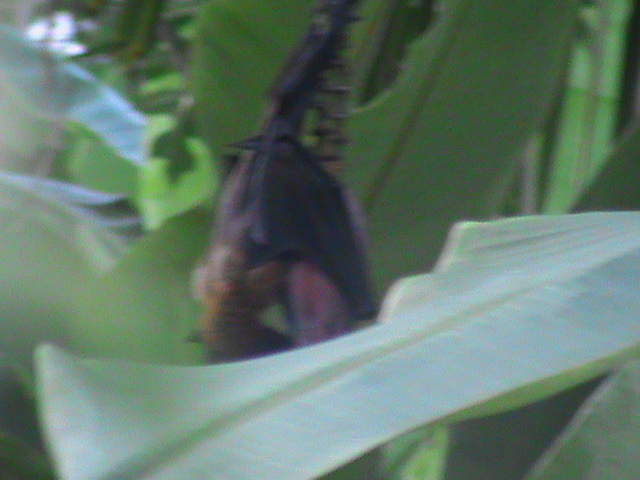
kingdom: Animalia
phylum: Chordata
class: Mammalia
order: Chiroptera
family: Pteropodidae
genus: Pteropus
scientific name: Pteropus vampyrus
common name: Large flying fox
